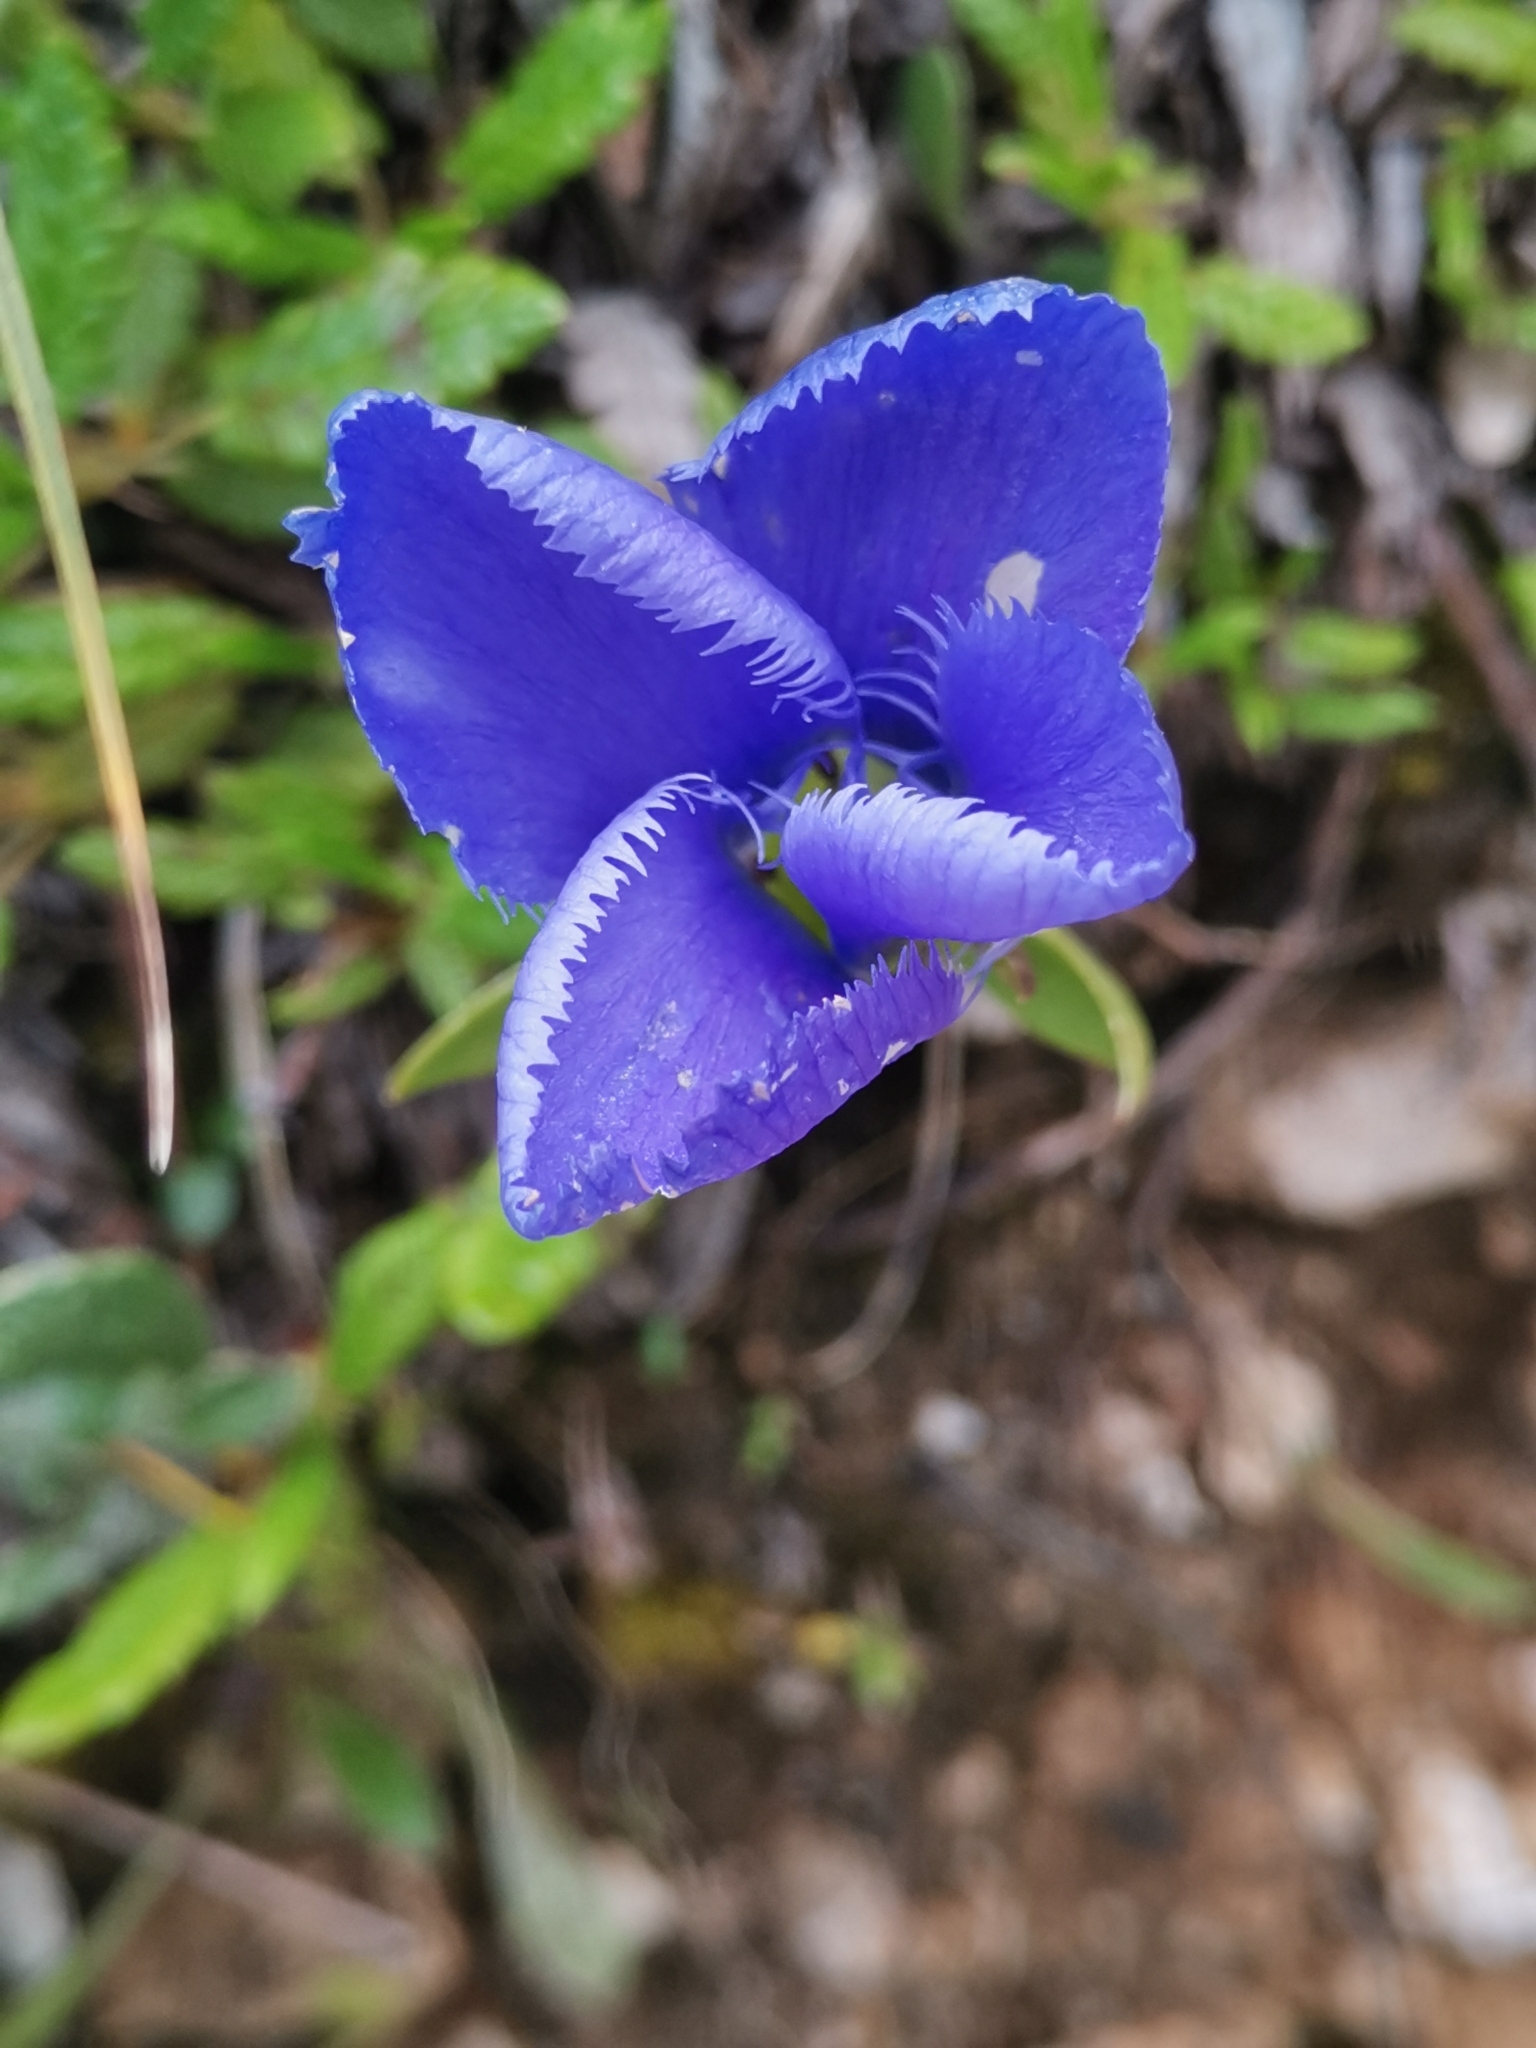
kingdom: Plantae
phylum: Tracheophyta
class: Magnoliopsida
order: Gentianales
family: Gentianaceae
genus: Gentianopsis
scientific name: Gentianopsis ciliata
